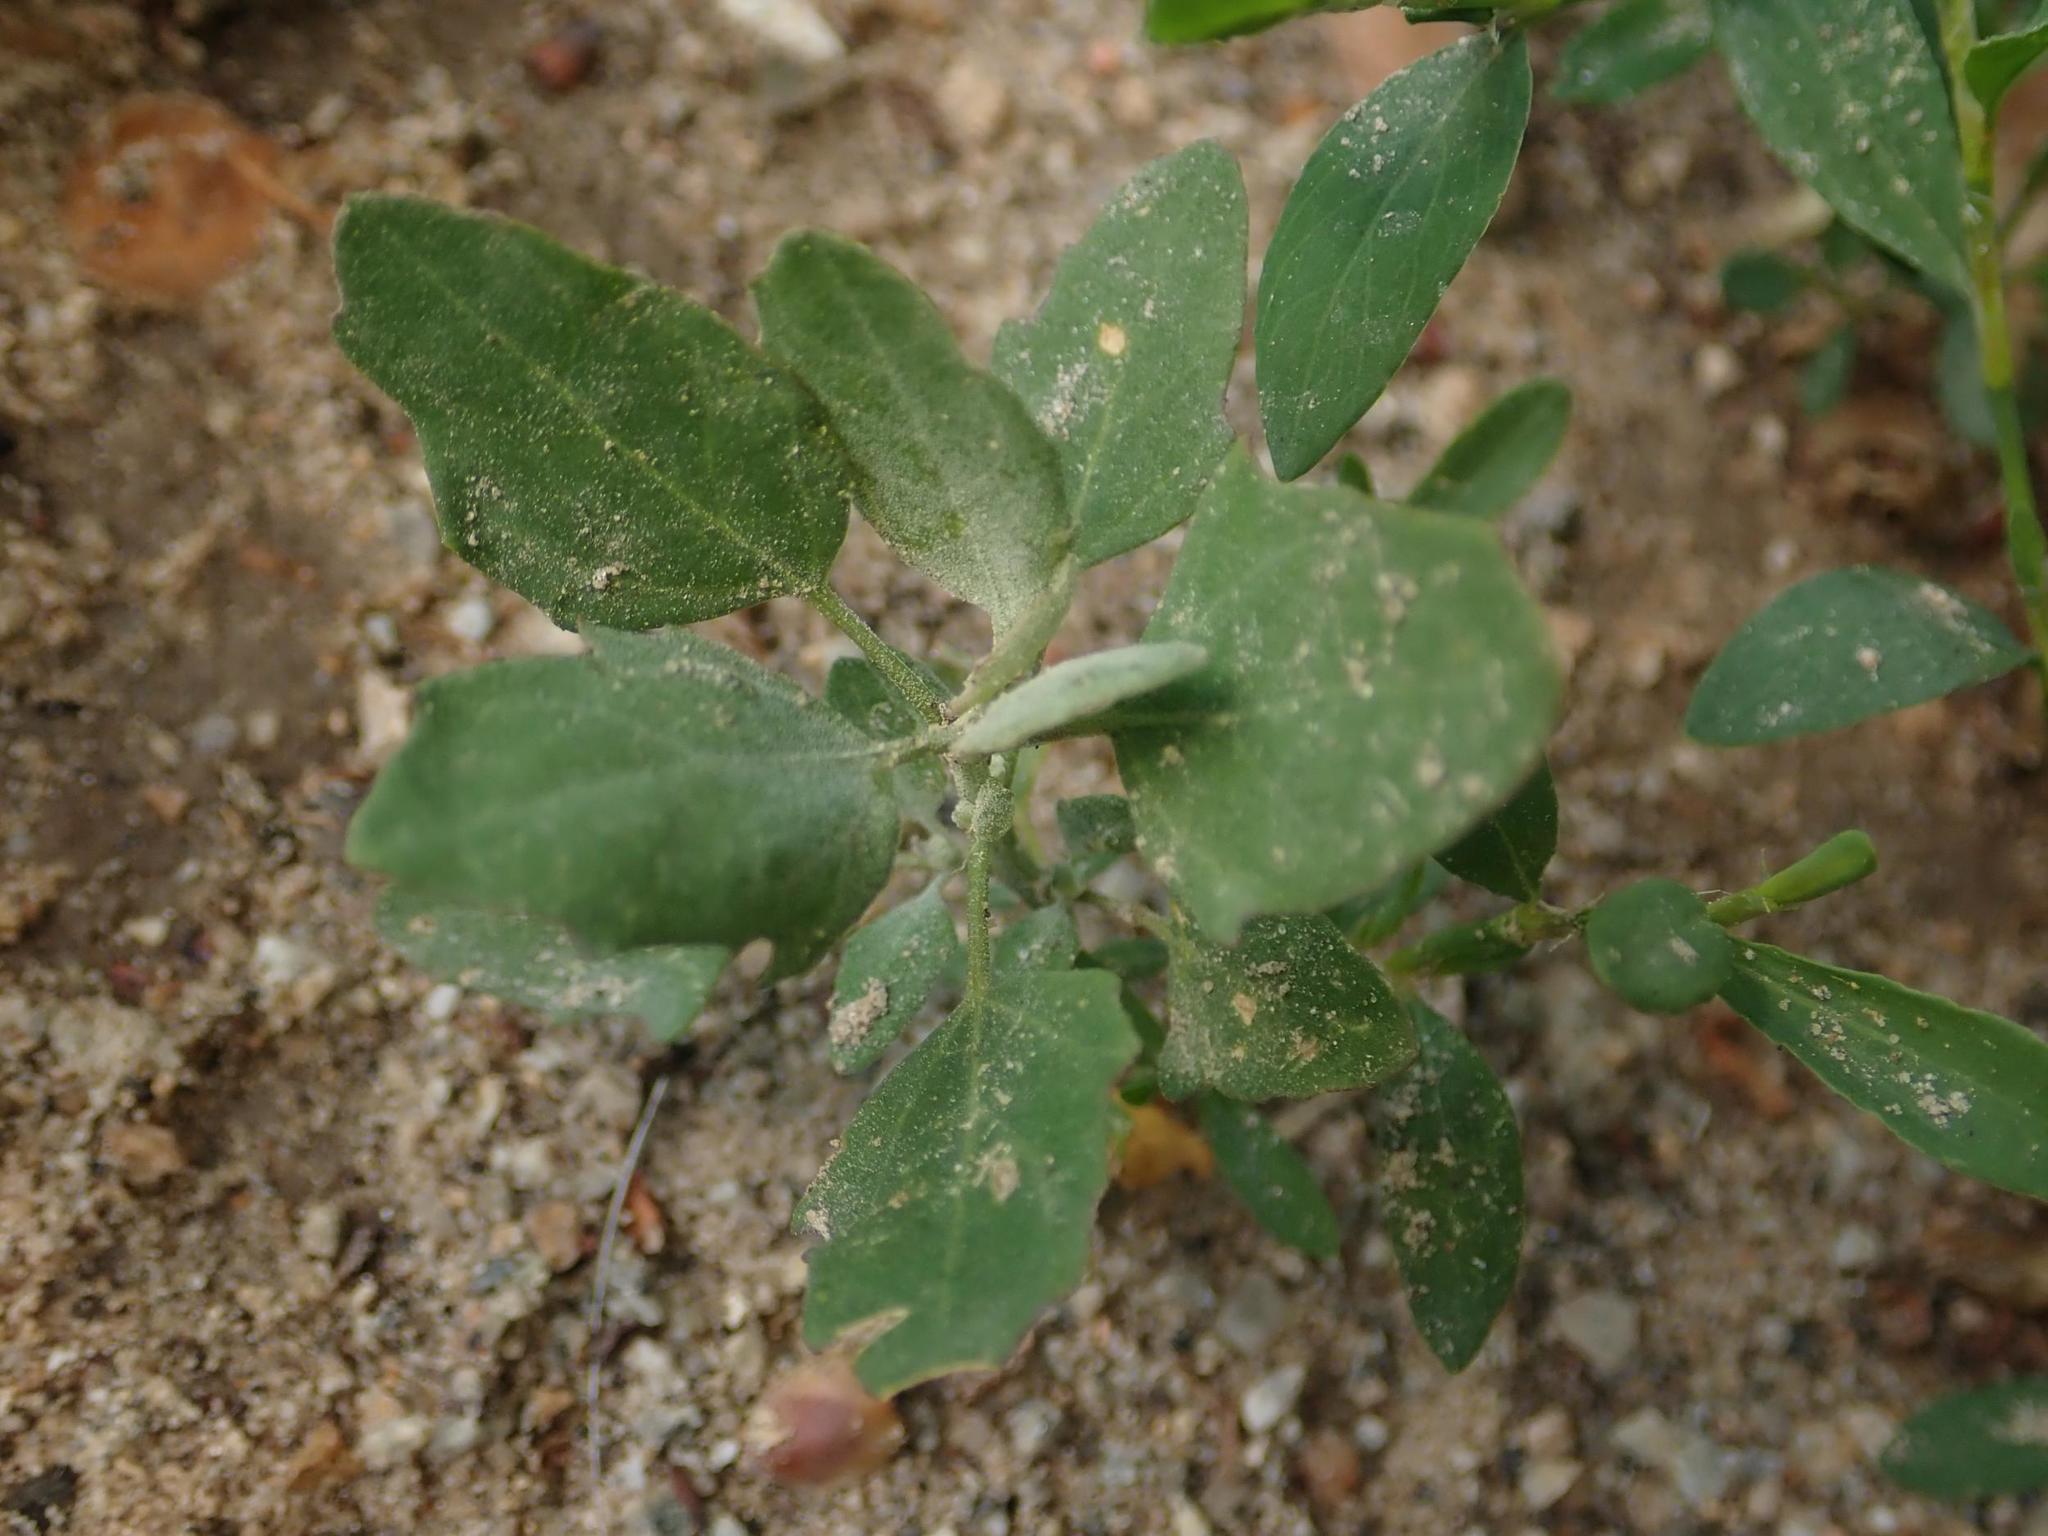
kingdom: Plantae
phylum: Tracheophyta
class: Magnoliopsida
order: Caryophyllales
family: Amaranthaceae
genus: Chenopodium
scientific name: Chenopodium album
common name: Fat-hen
